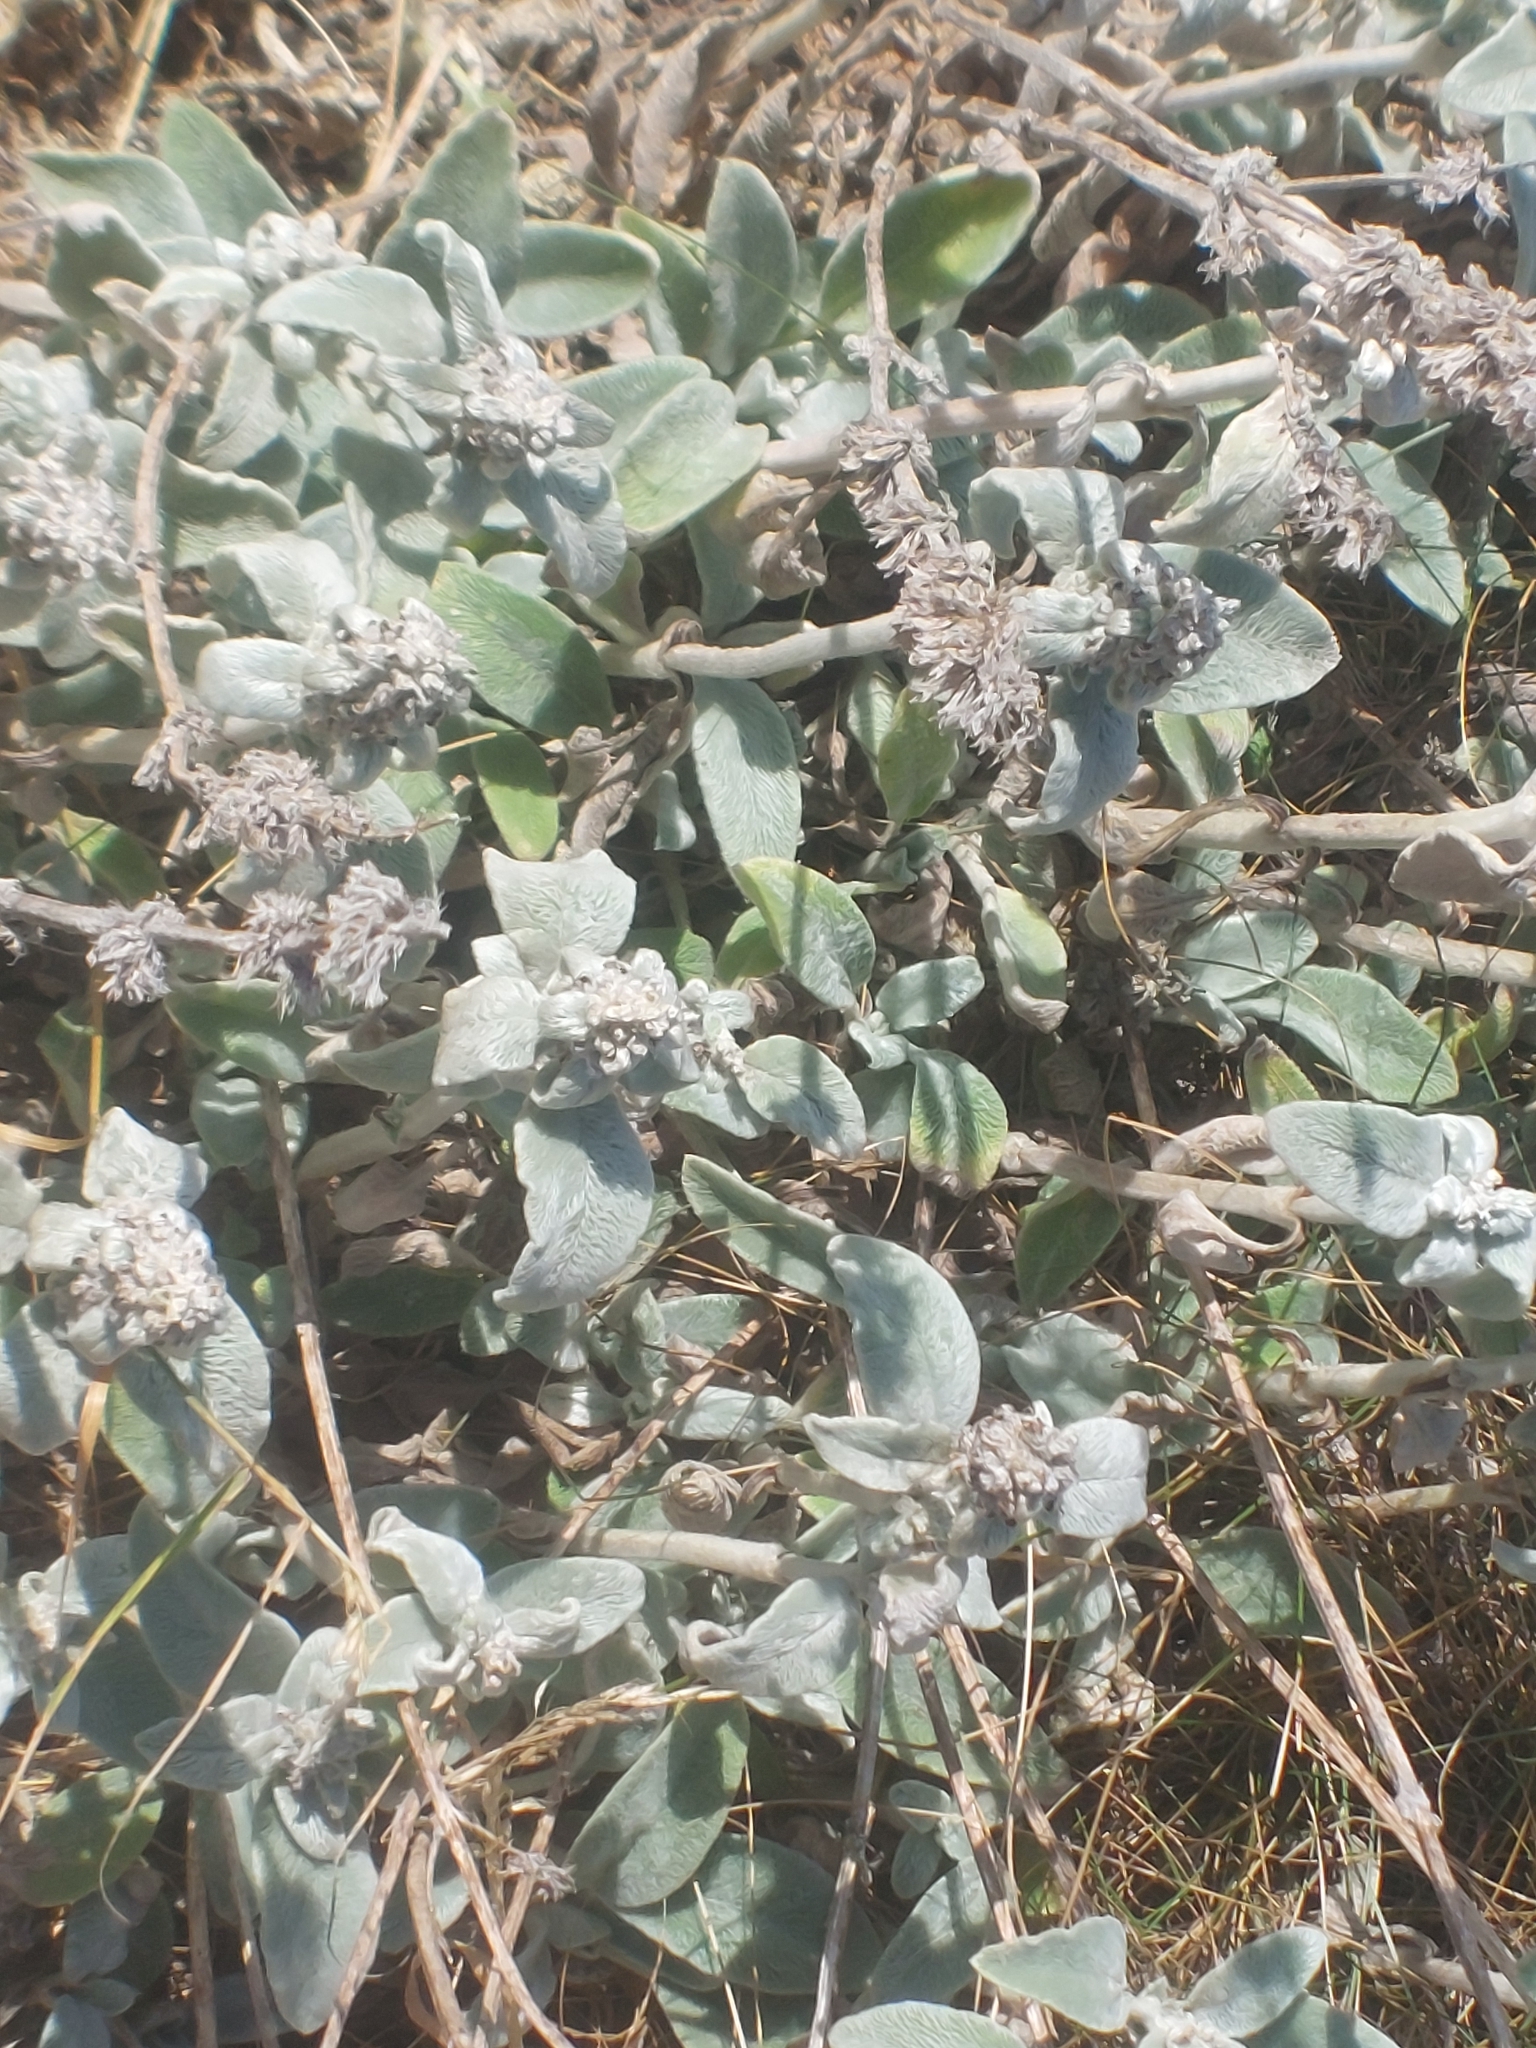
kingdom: Plantae
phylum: Tracheophyta
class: Magnoliopsida
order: Lamiales
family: Lamiaceae
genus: Stachys
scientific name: Stachys byzantina
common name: Lamb's-ear
